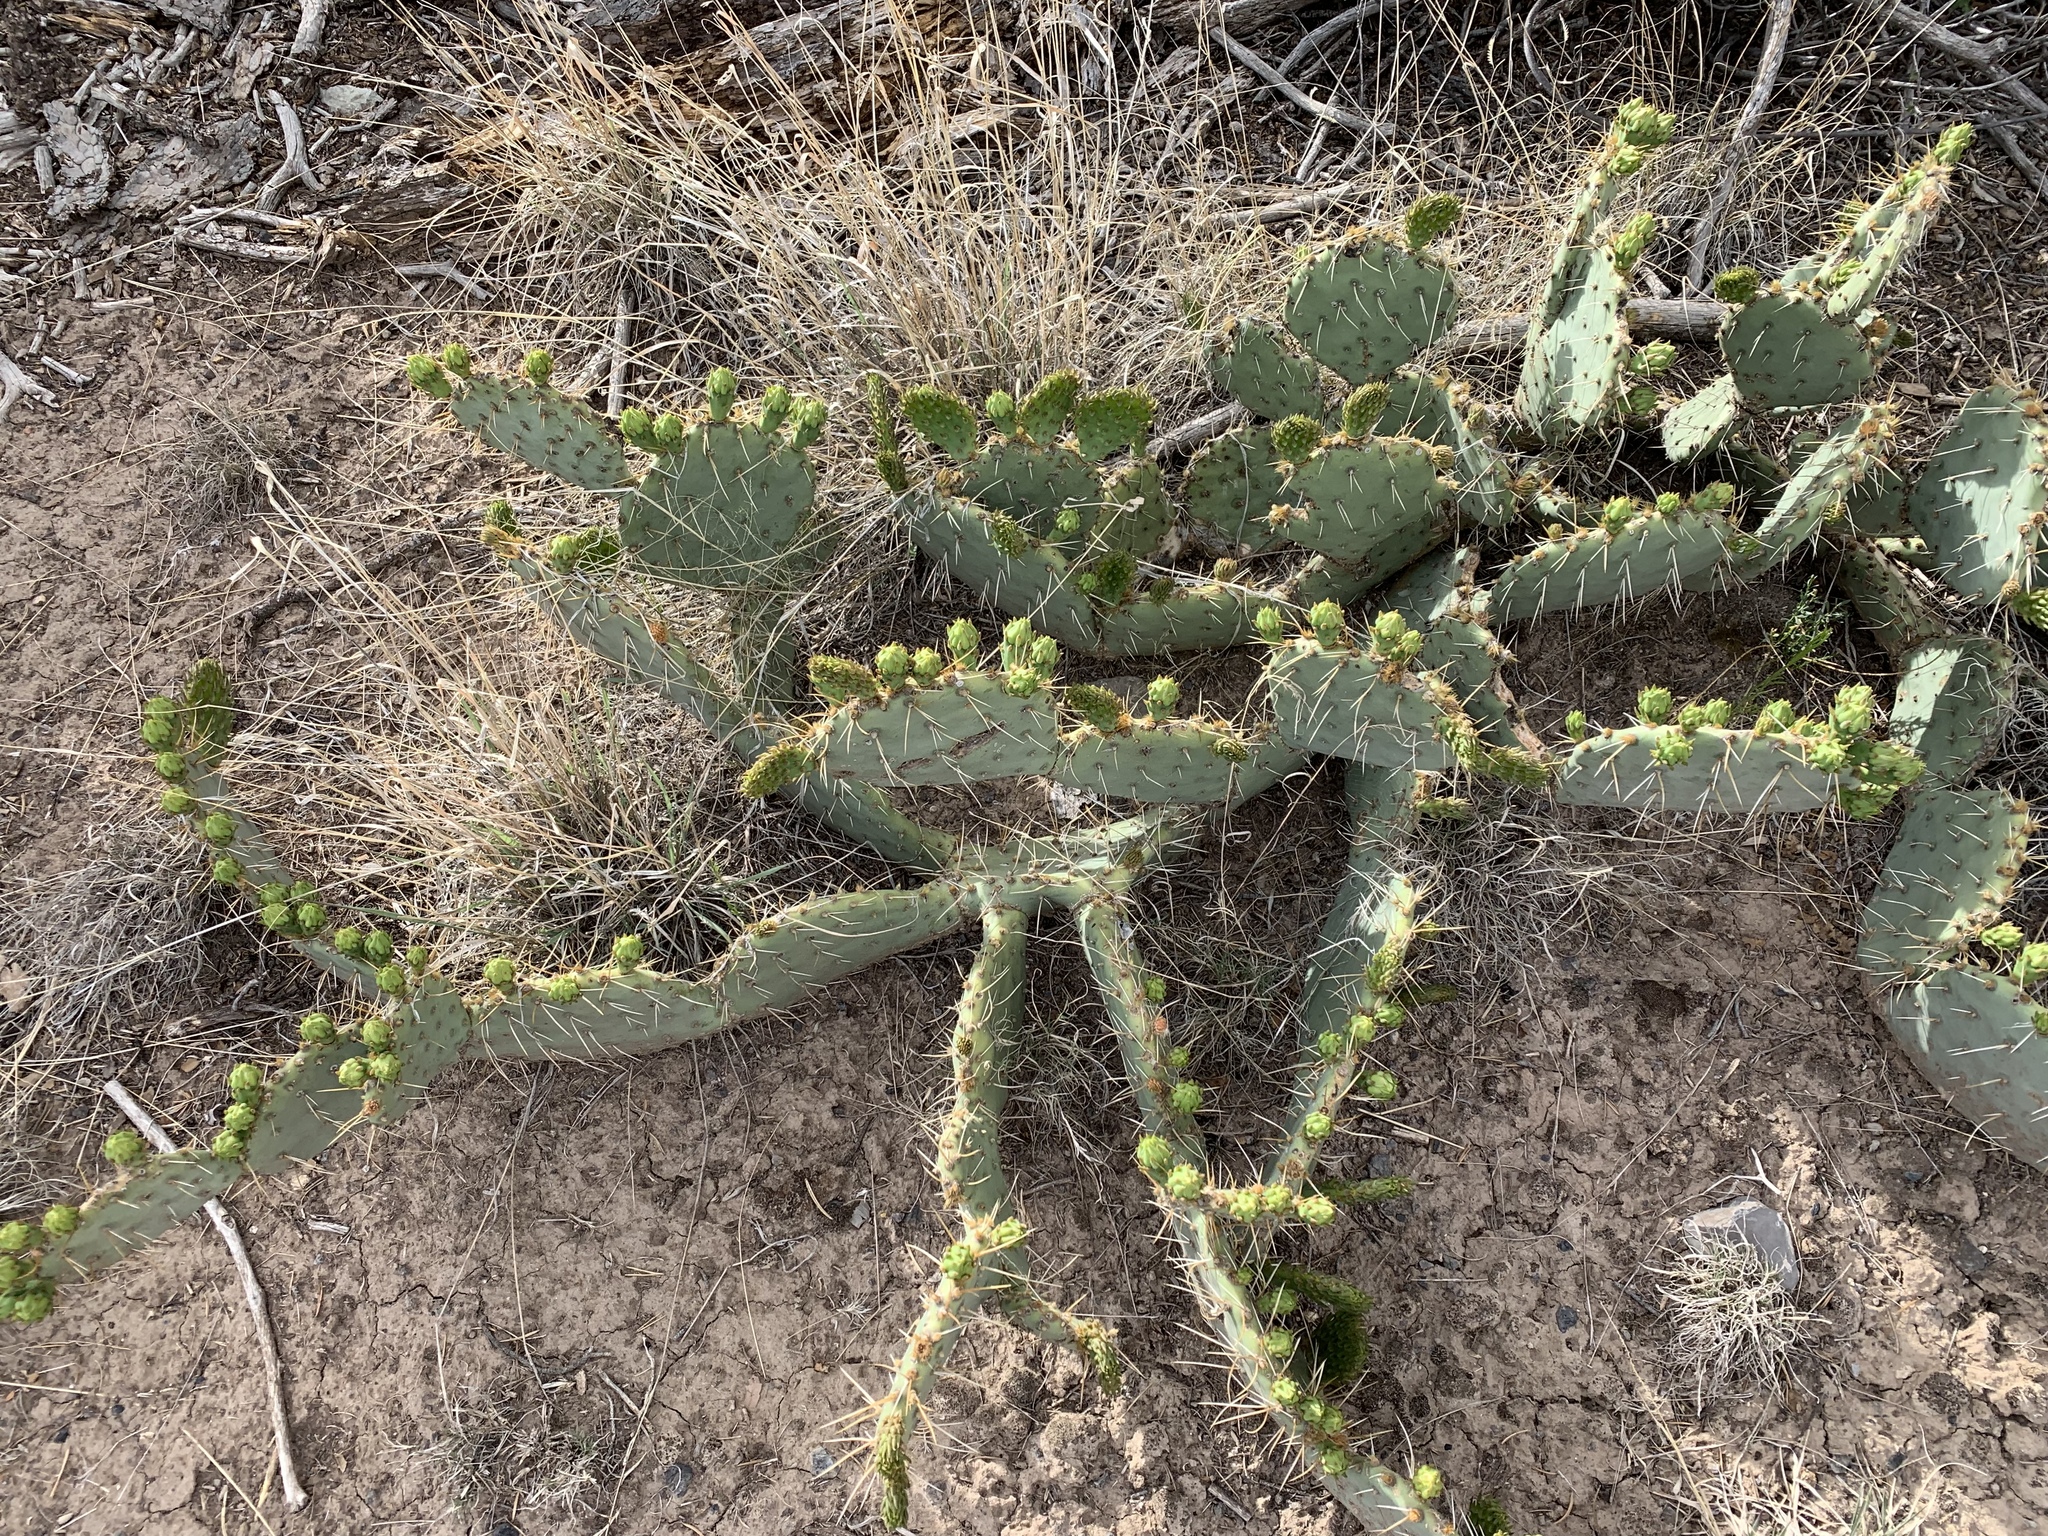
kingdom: Plantae
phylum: Tracheophyta
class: Magnoliopsida
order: Caryophyllales
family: Cactaceae
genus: Opuntia
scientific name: Opuntia engelmannii
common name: Cactus-apple
